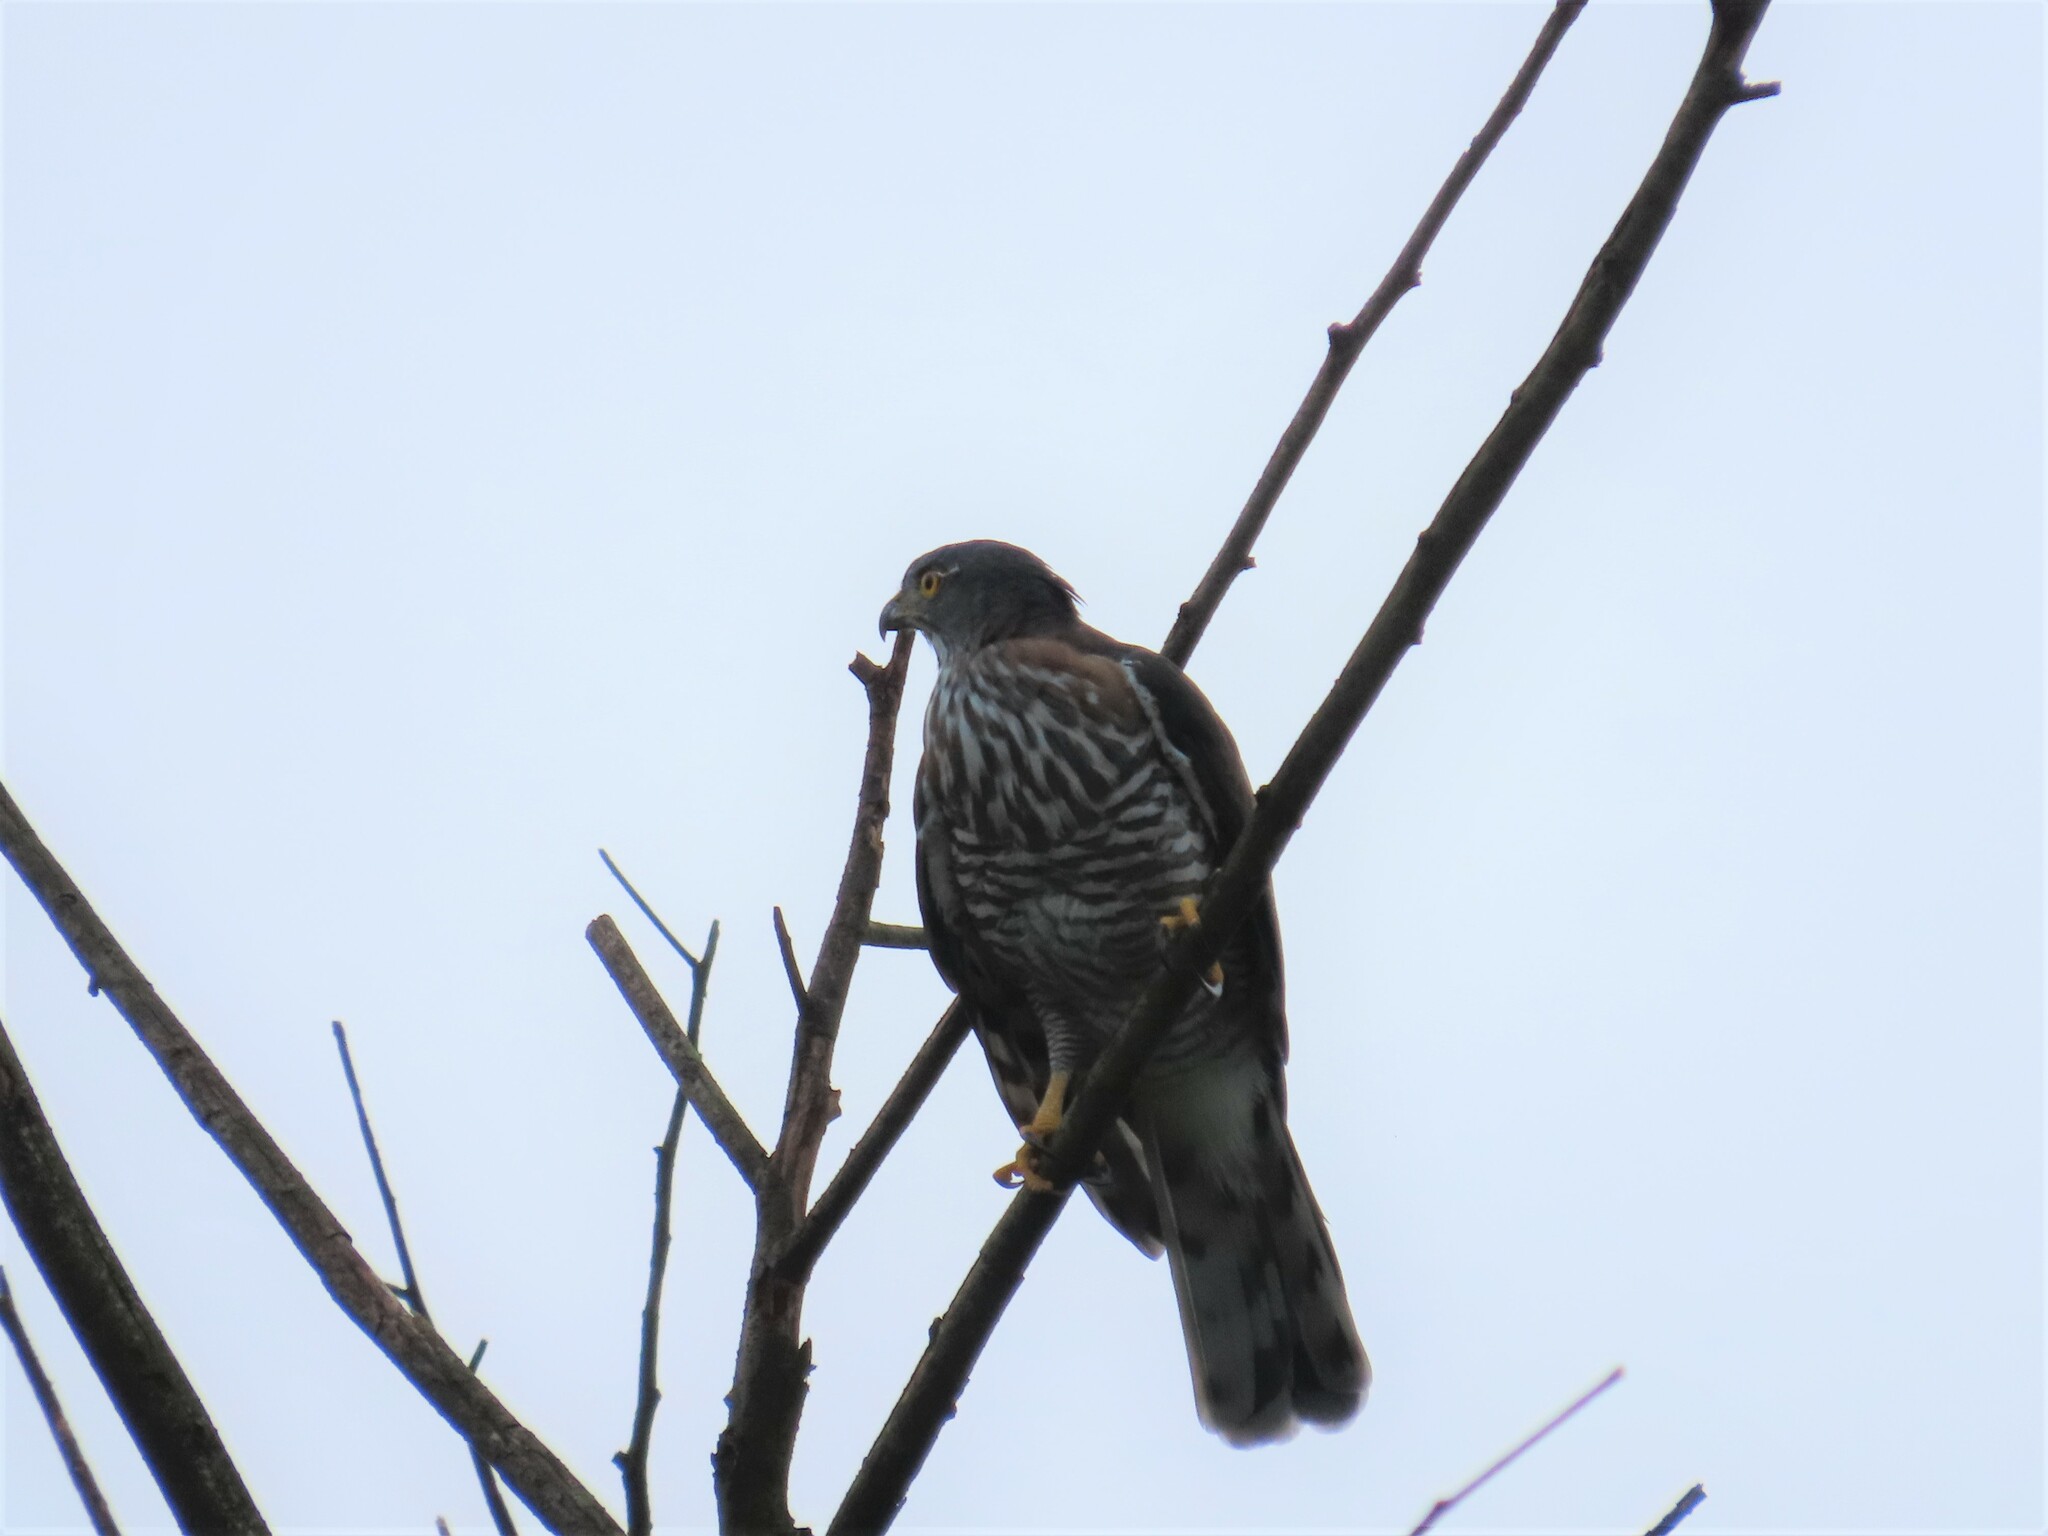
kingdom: Animalia
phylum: Chordata
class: Aves
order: Accipitriformes
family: Accipitridae
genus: Accipiter
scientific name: Accipiter trivirgatus
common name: Crested goshawk
